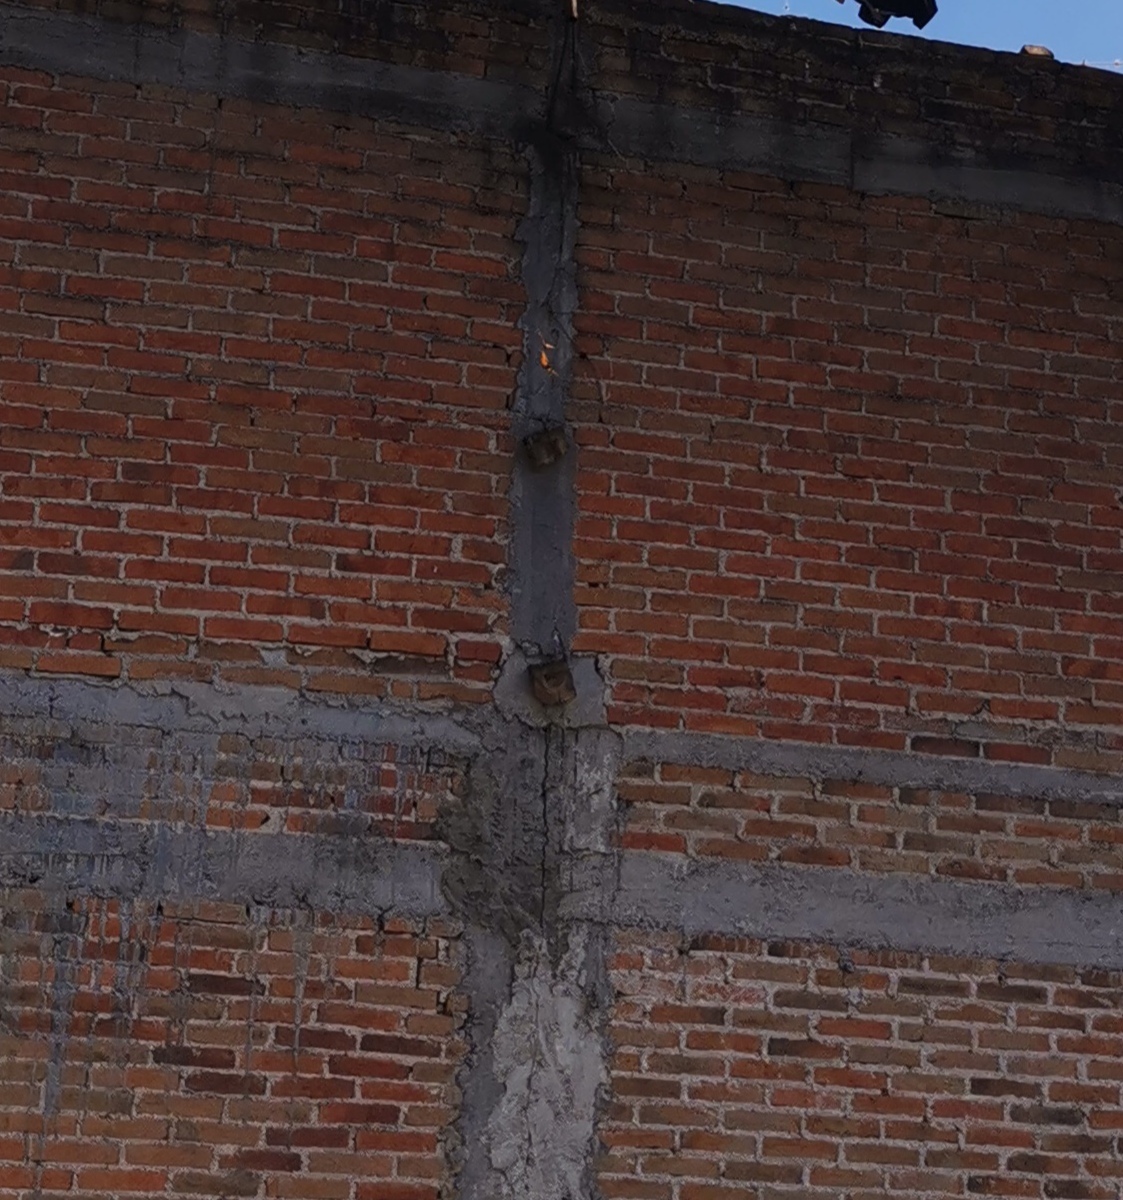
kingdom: Animalia
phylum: Arthropoda
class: Insecta
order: Lepidoptera
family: Nymphalidae
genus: Danaus
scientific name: Danaus plexippus
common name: Monarch
